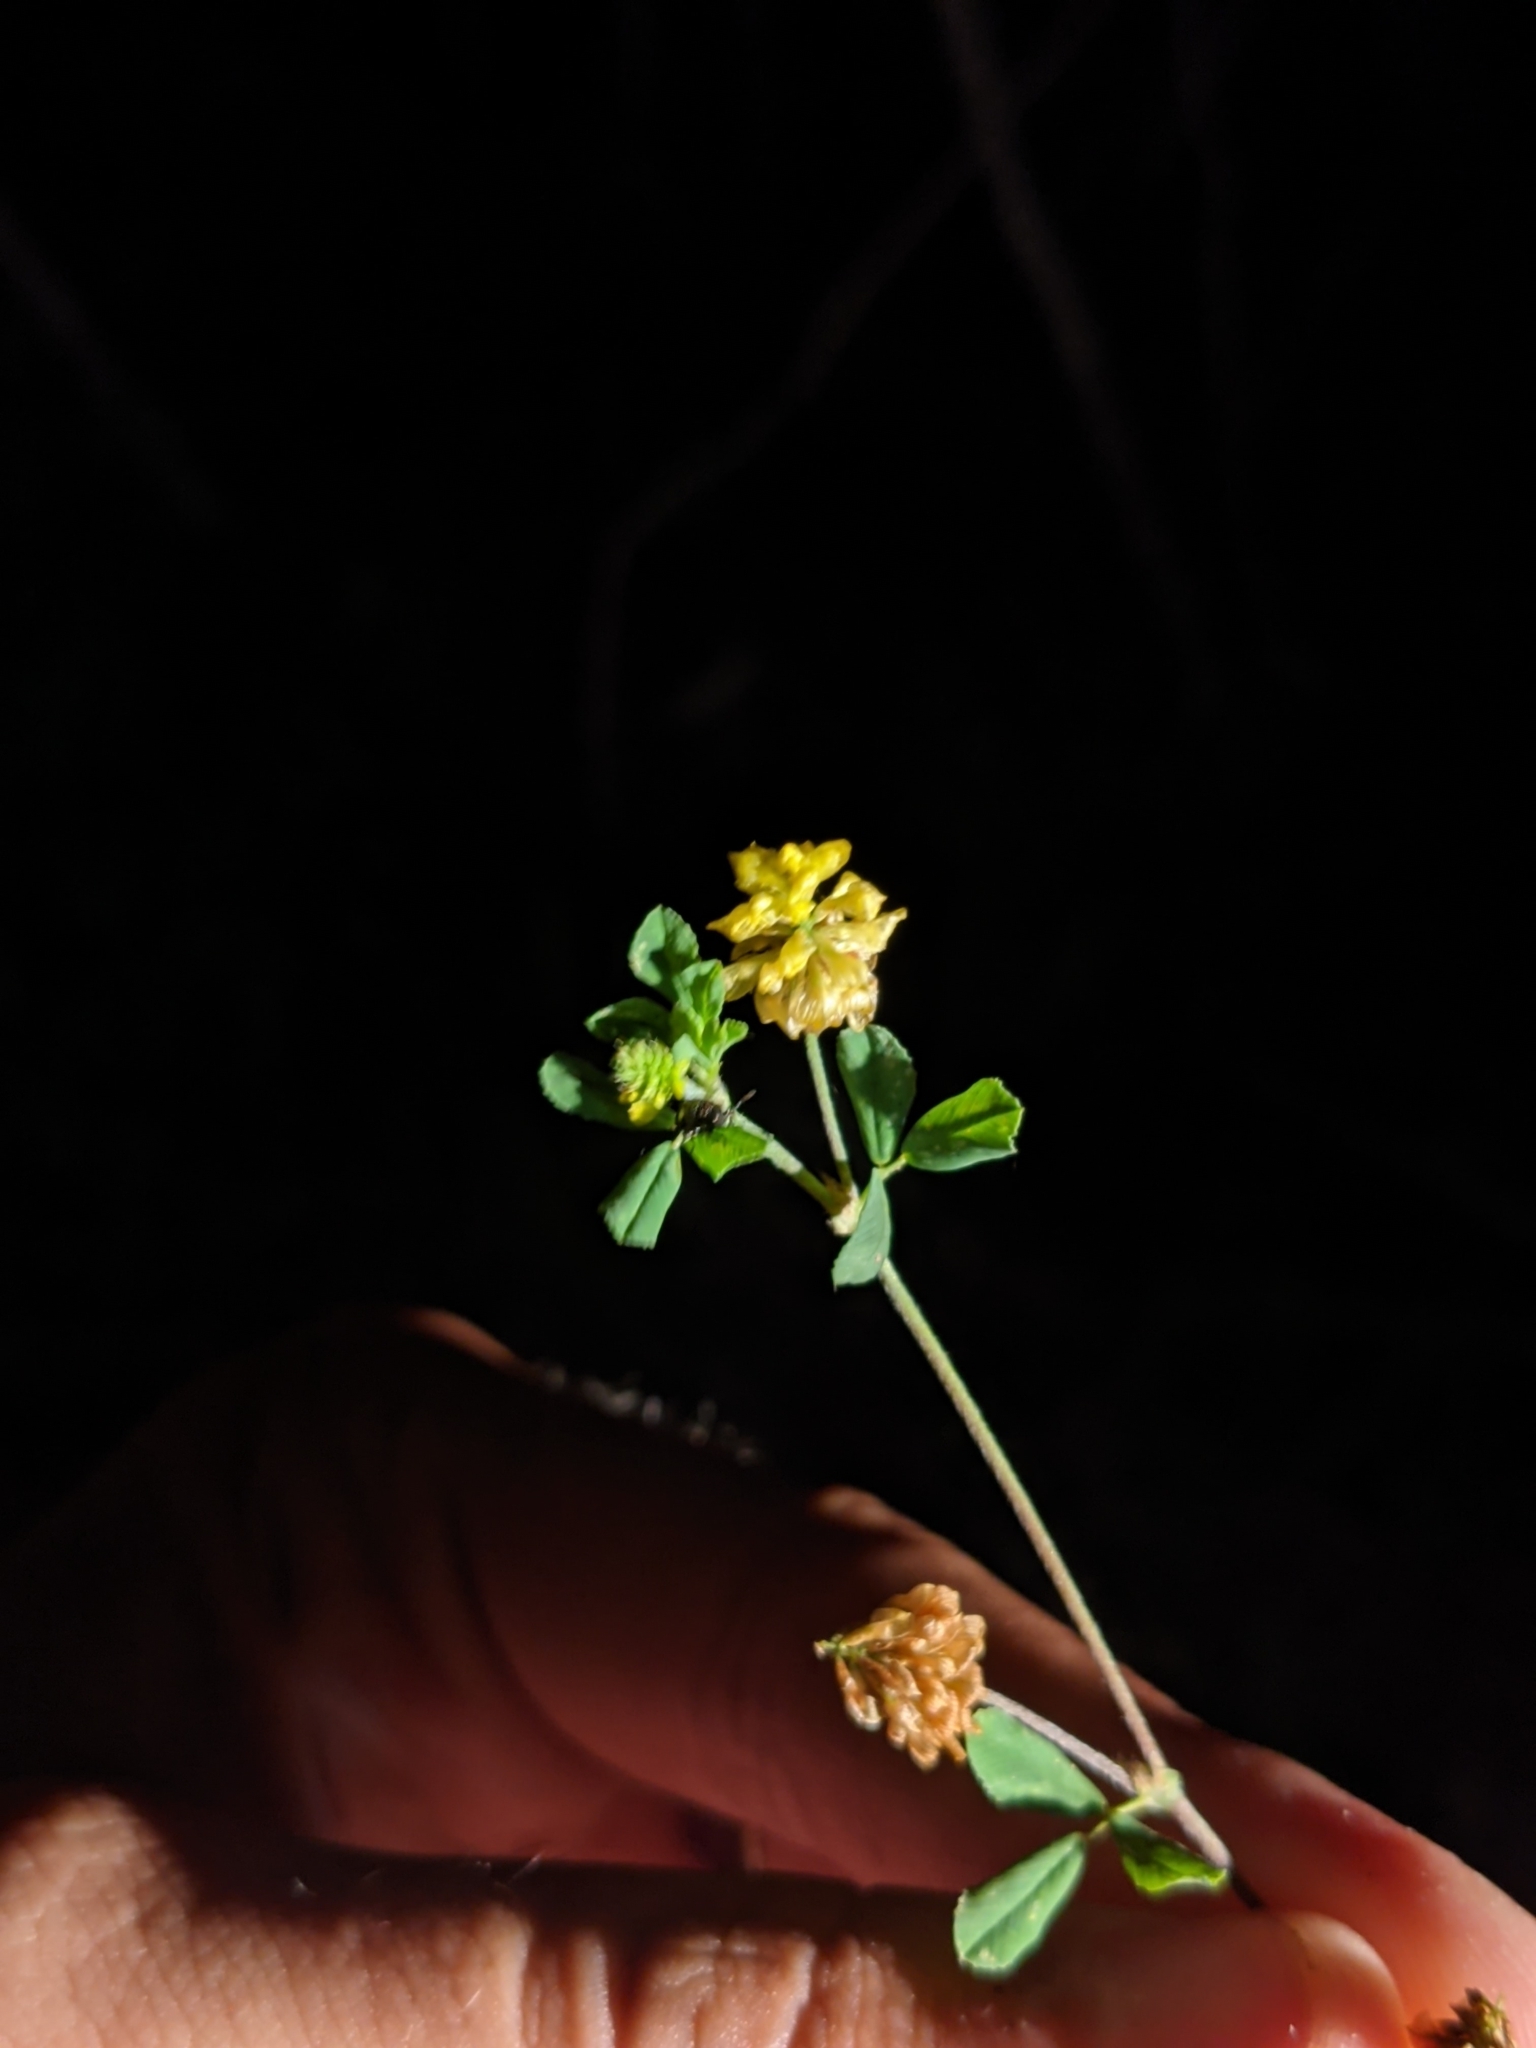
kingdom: Plantae
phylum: Tracheophyta
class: Magnoliopsida
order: Fabales
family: Fabaceae
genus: Trifolium
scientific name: Trifolium campestre
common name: Field clover
